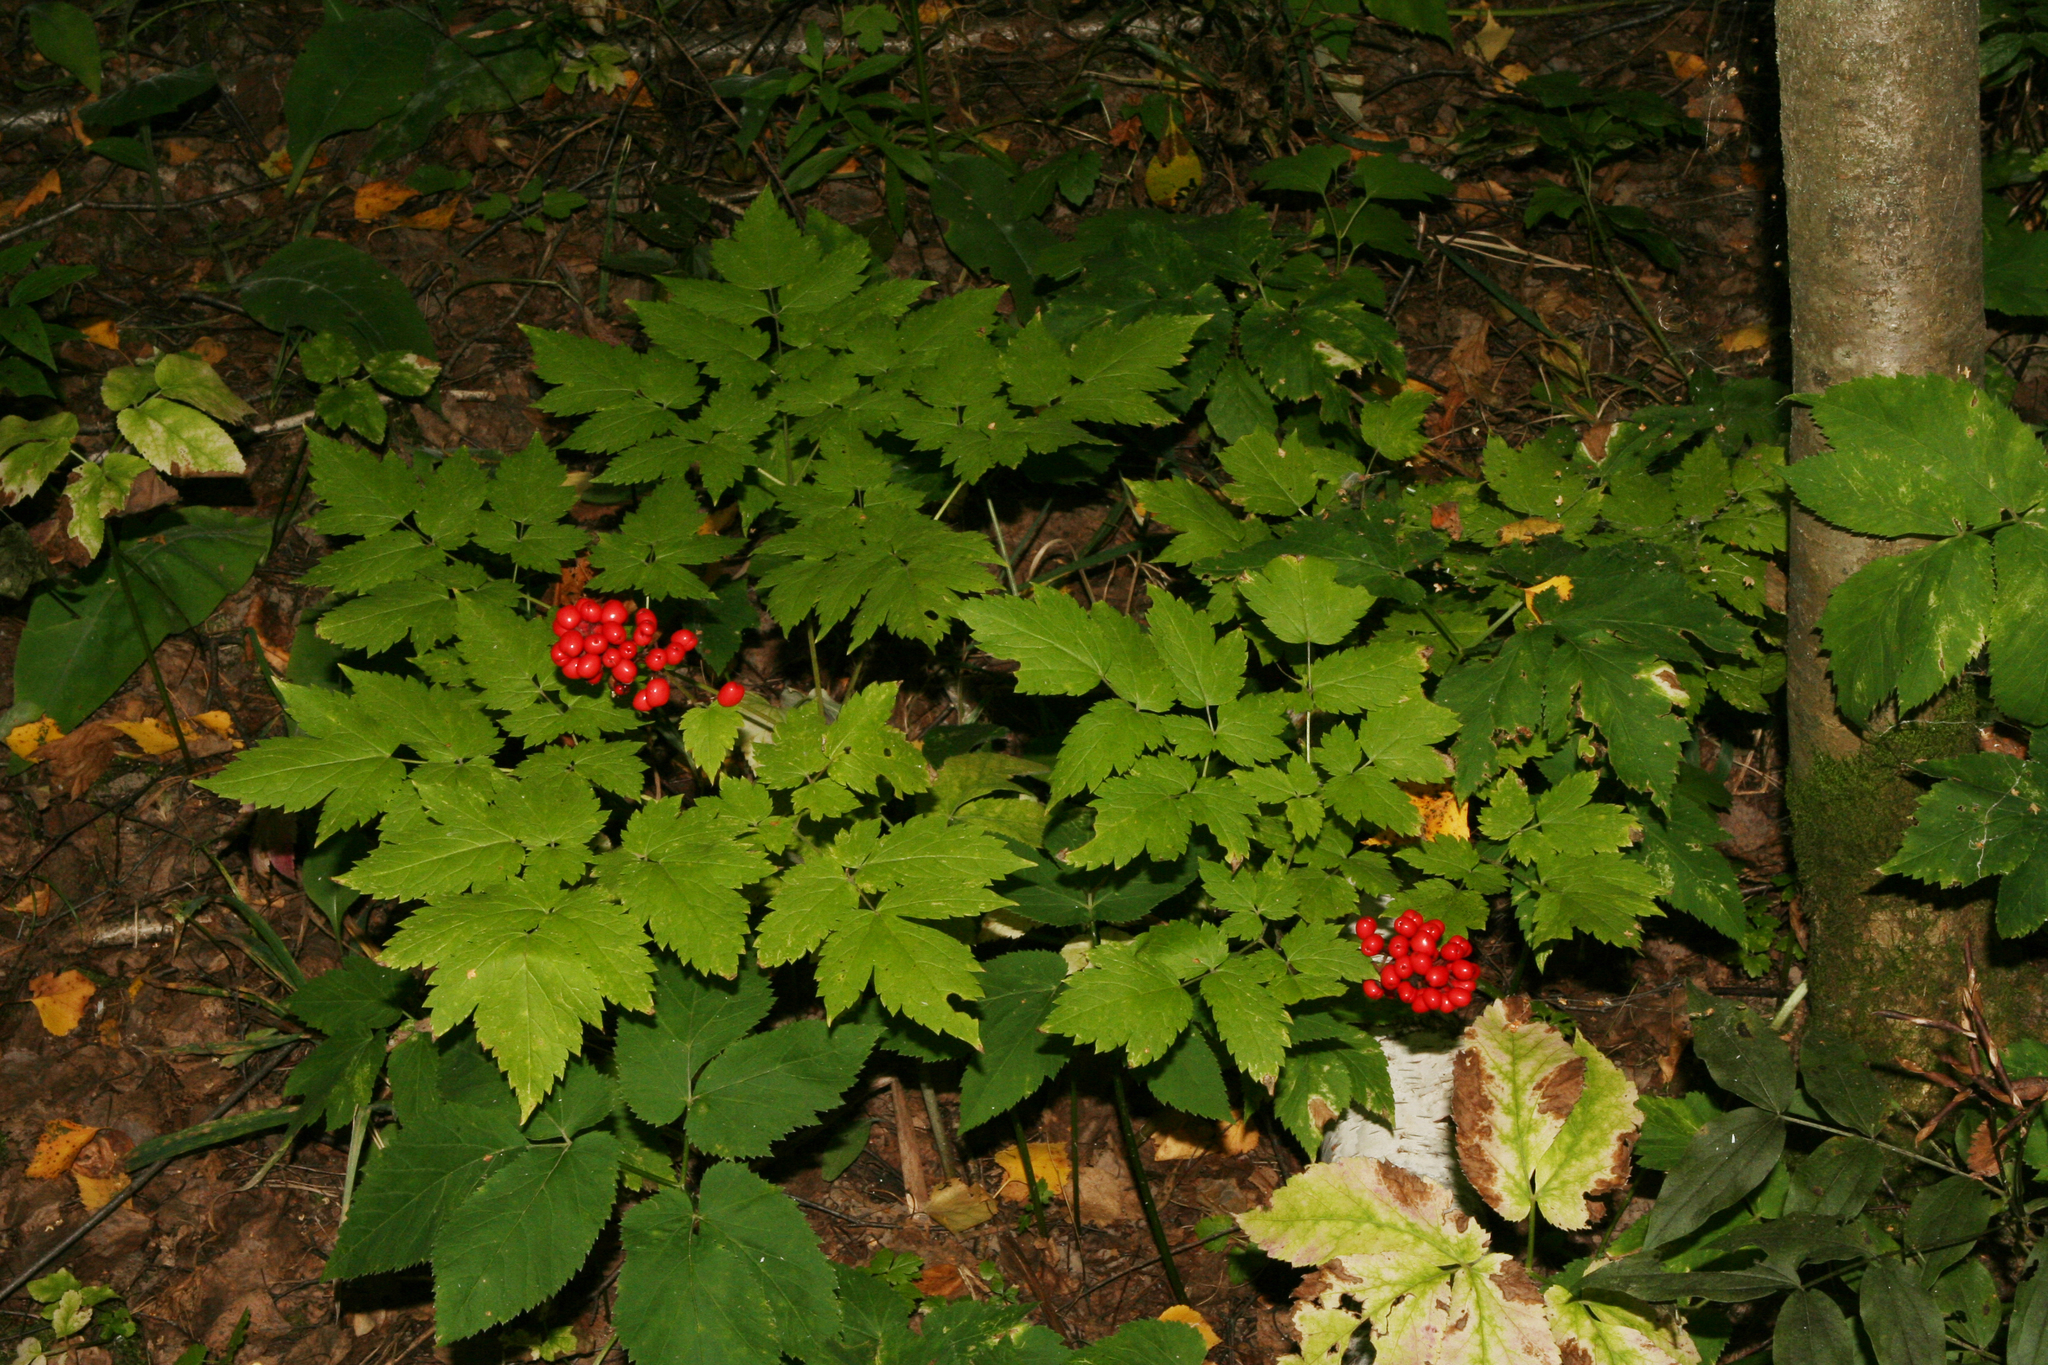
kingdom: Plantae
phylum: Tracheophyta
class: Magnoliopsida
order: Ranunculales
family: Ranunculaceae
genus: Actaea
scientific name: Actaea erythrocarpa
